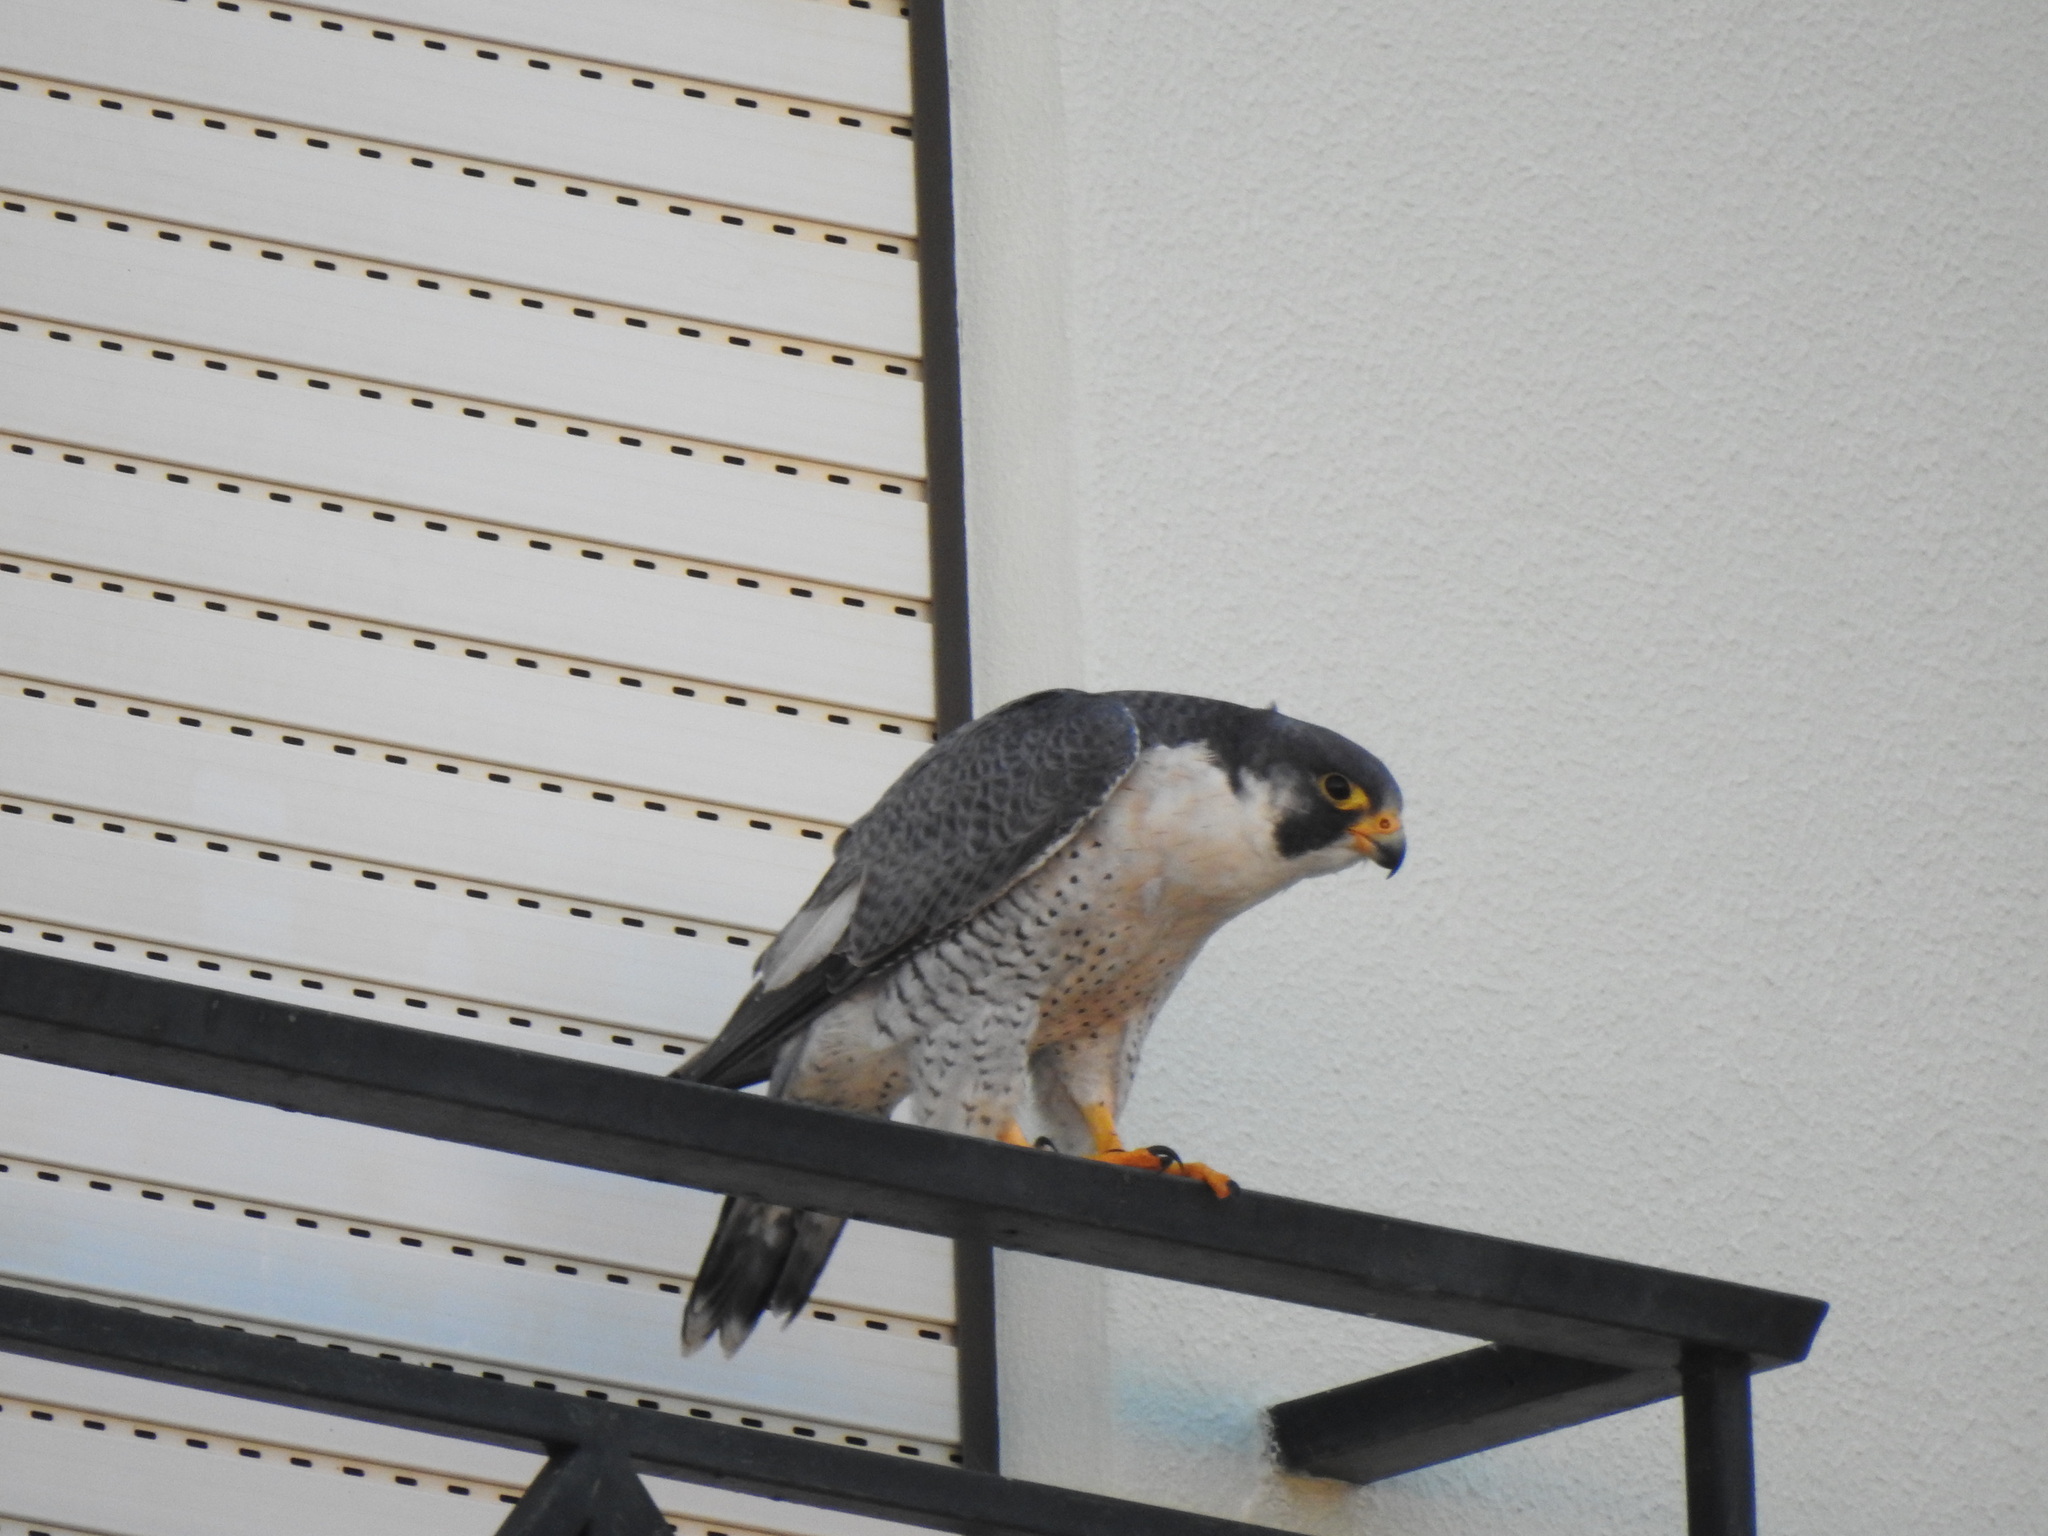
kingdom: Animalia
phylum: Chordata
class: Aves
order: Falconiformes
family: Falconidae
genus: Falco
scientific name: Falco peregrinus
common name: Peregrine falcon
